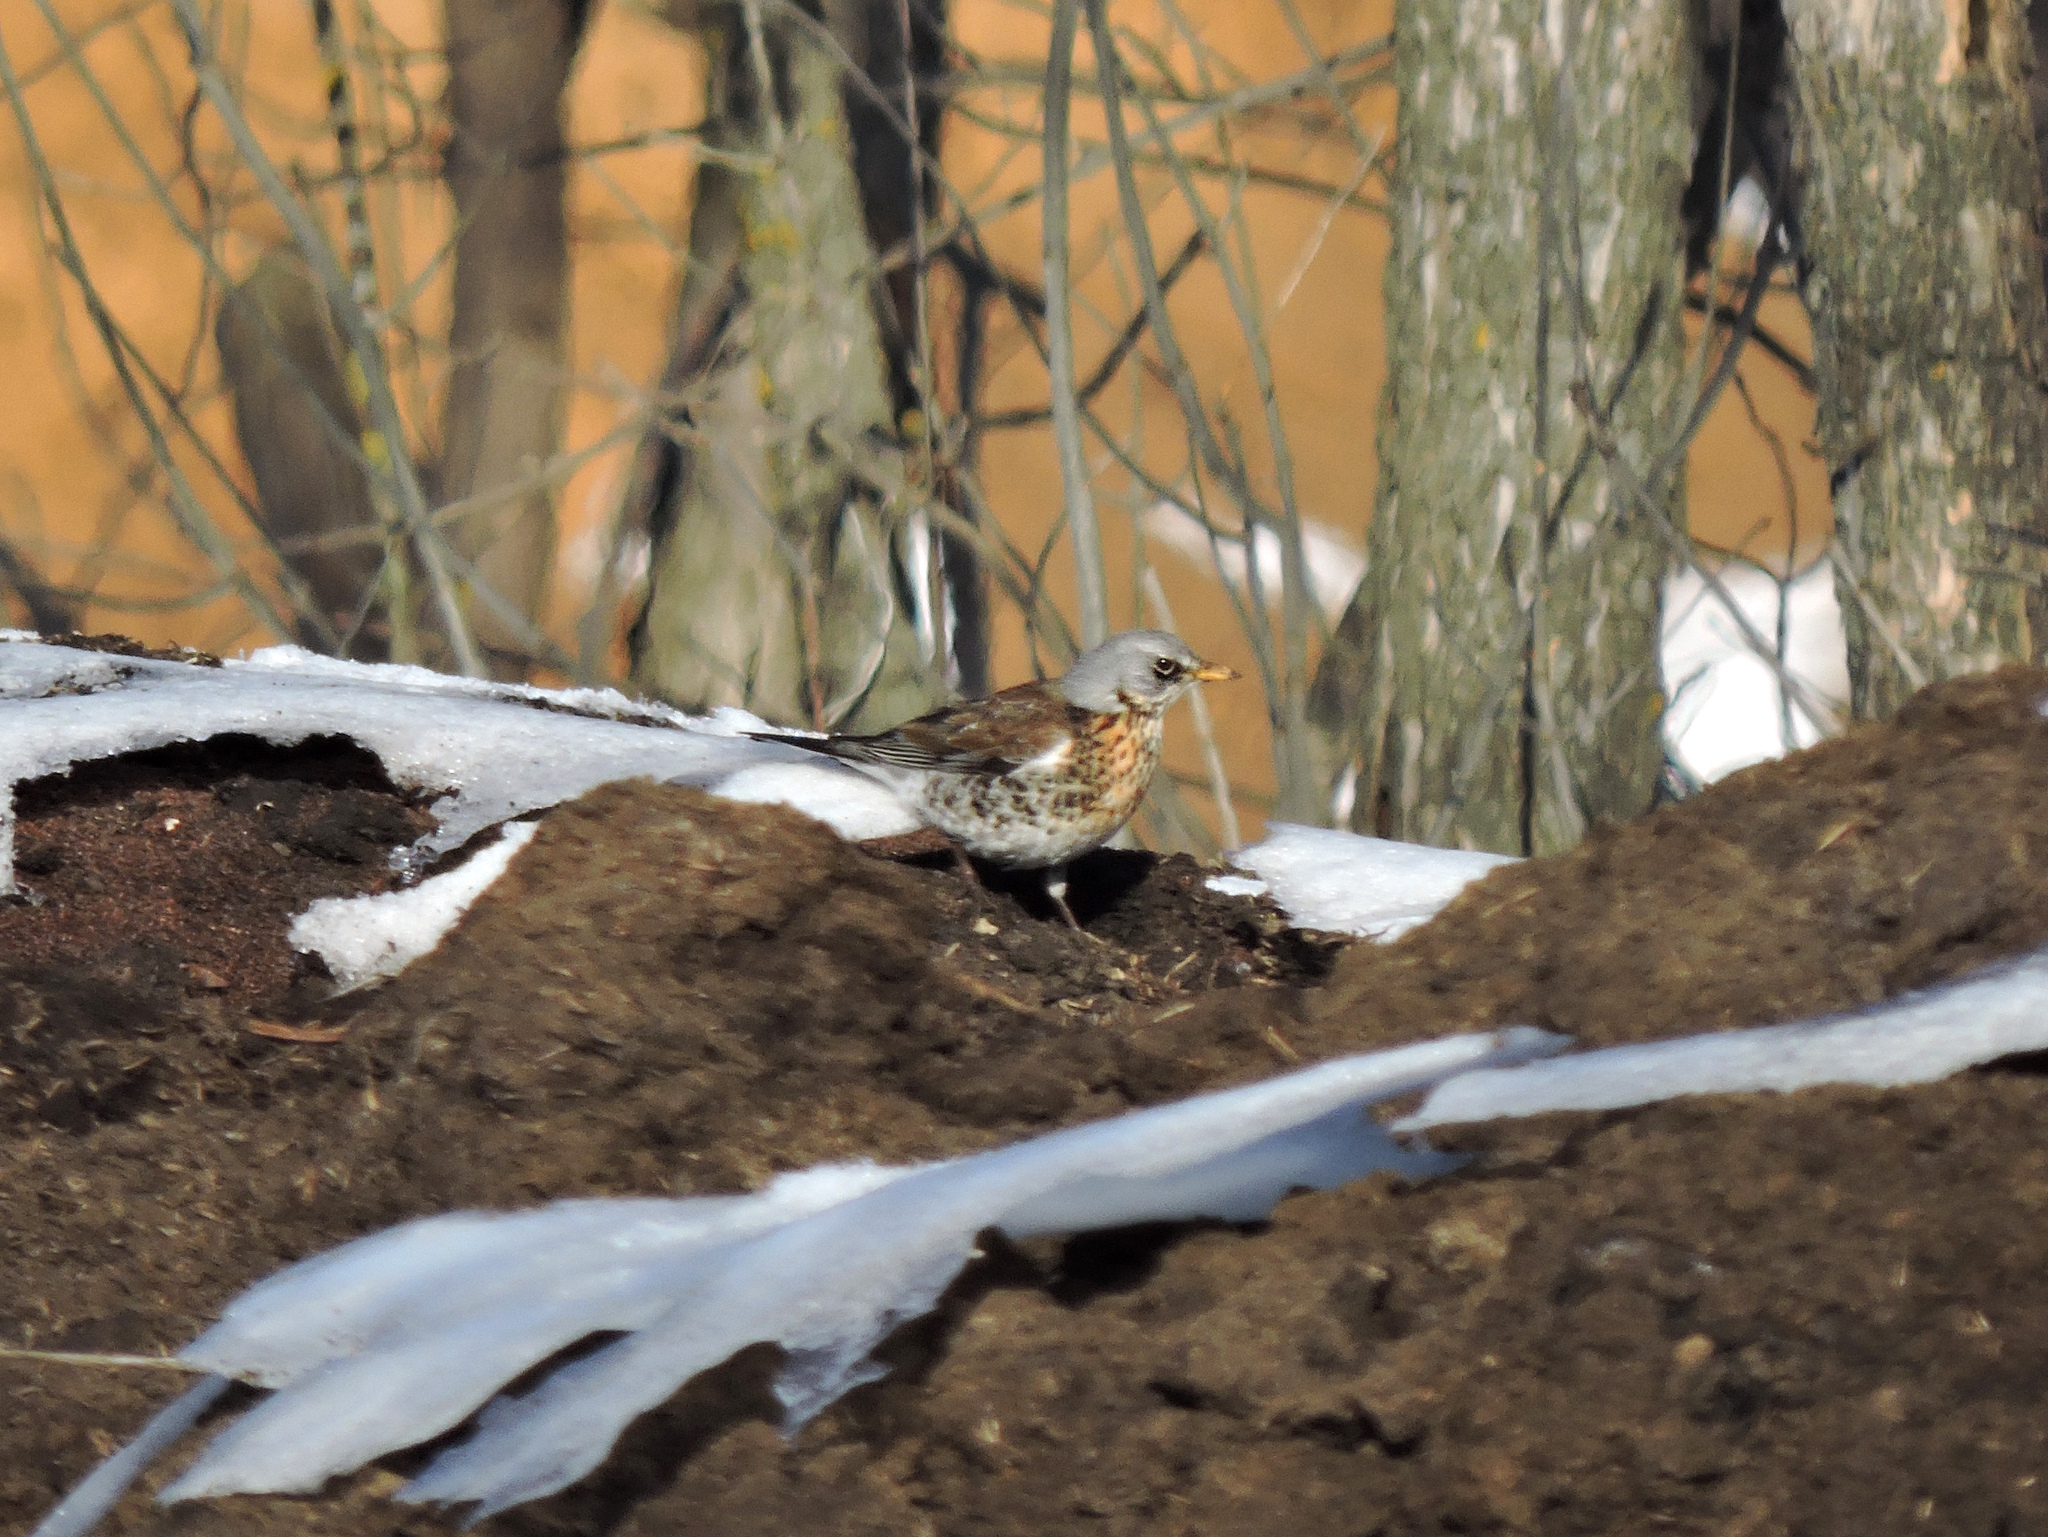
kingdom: Animalia
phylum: Chordata
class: Aves
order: Passeriformes
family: Turdidae
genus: Turdus
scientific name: Turdus pilaris
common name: Fieldfare
